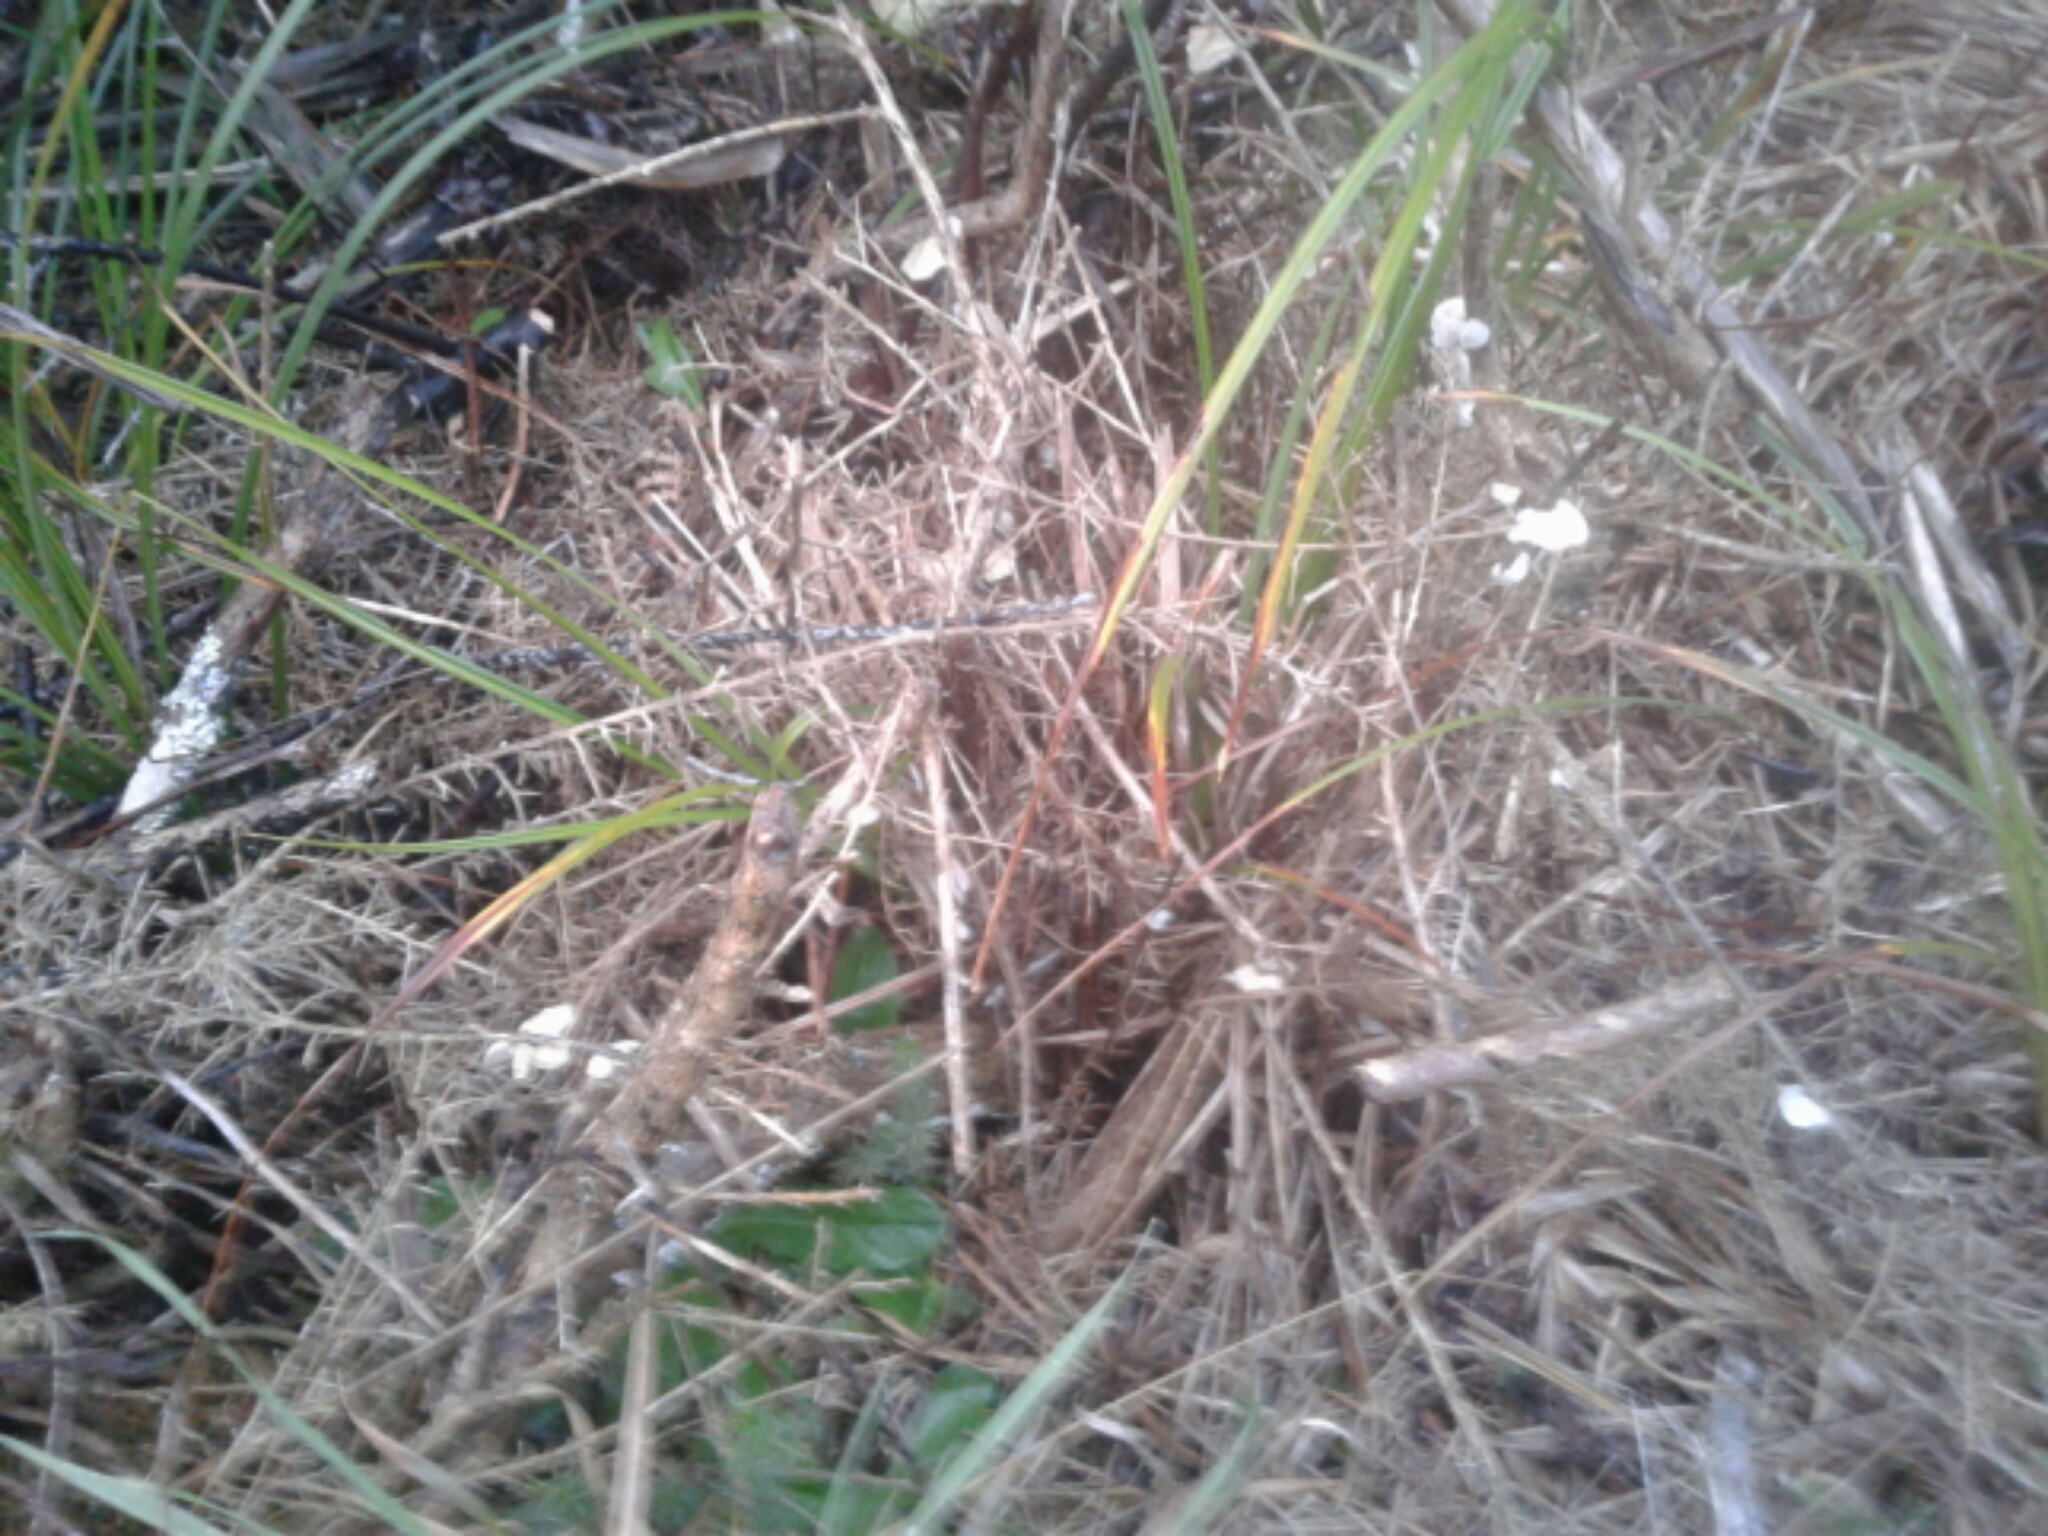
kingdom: Fungi
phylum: Basidiomycota
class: Agaricomycetes
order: Agaricales
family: Marasmiaceae
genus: Campanella
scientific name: Campanella tristis
